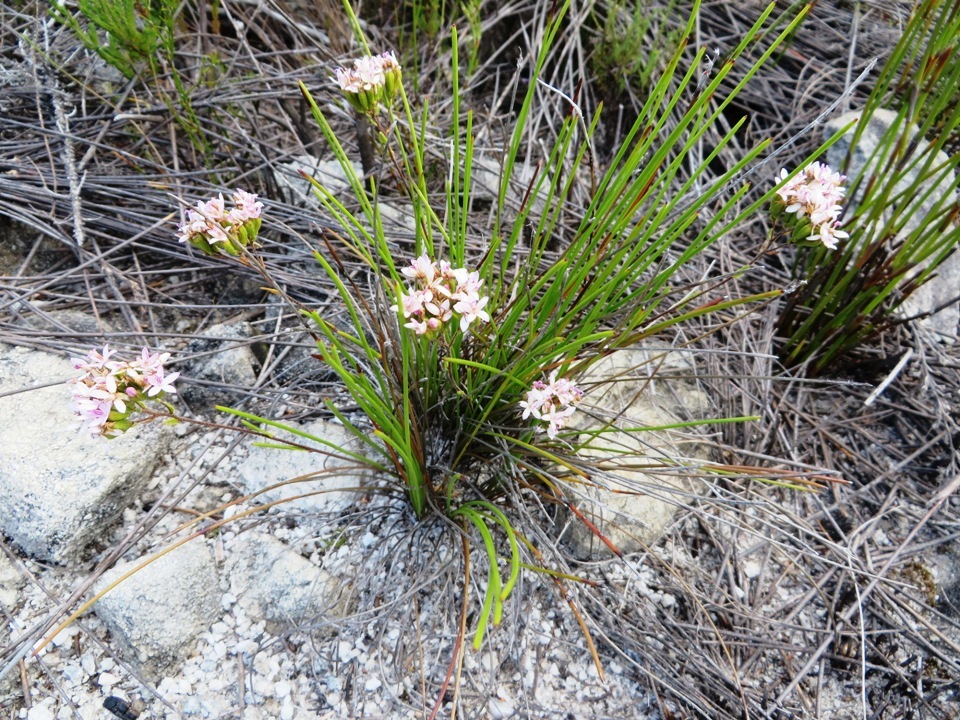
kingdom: Plantae
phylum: Tracheophyta
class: Magnoliopsida
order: Asterales
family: Asteraceae
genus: Corymbium
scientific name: Corymbium villosum
